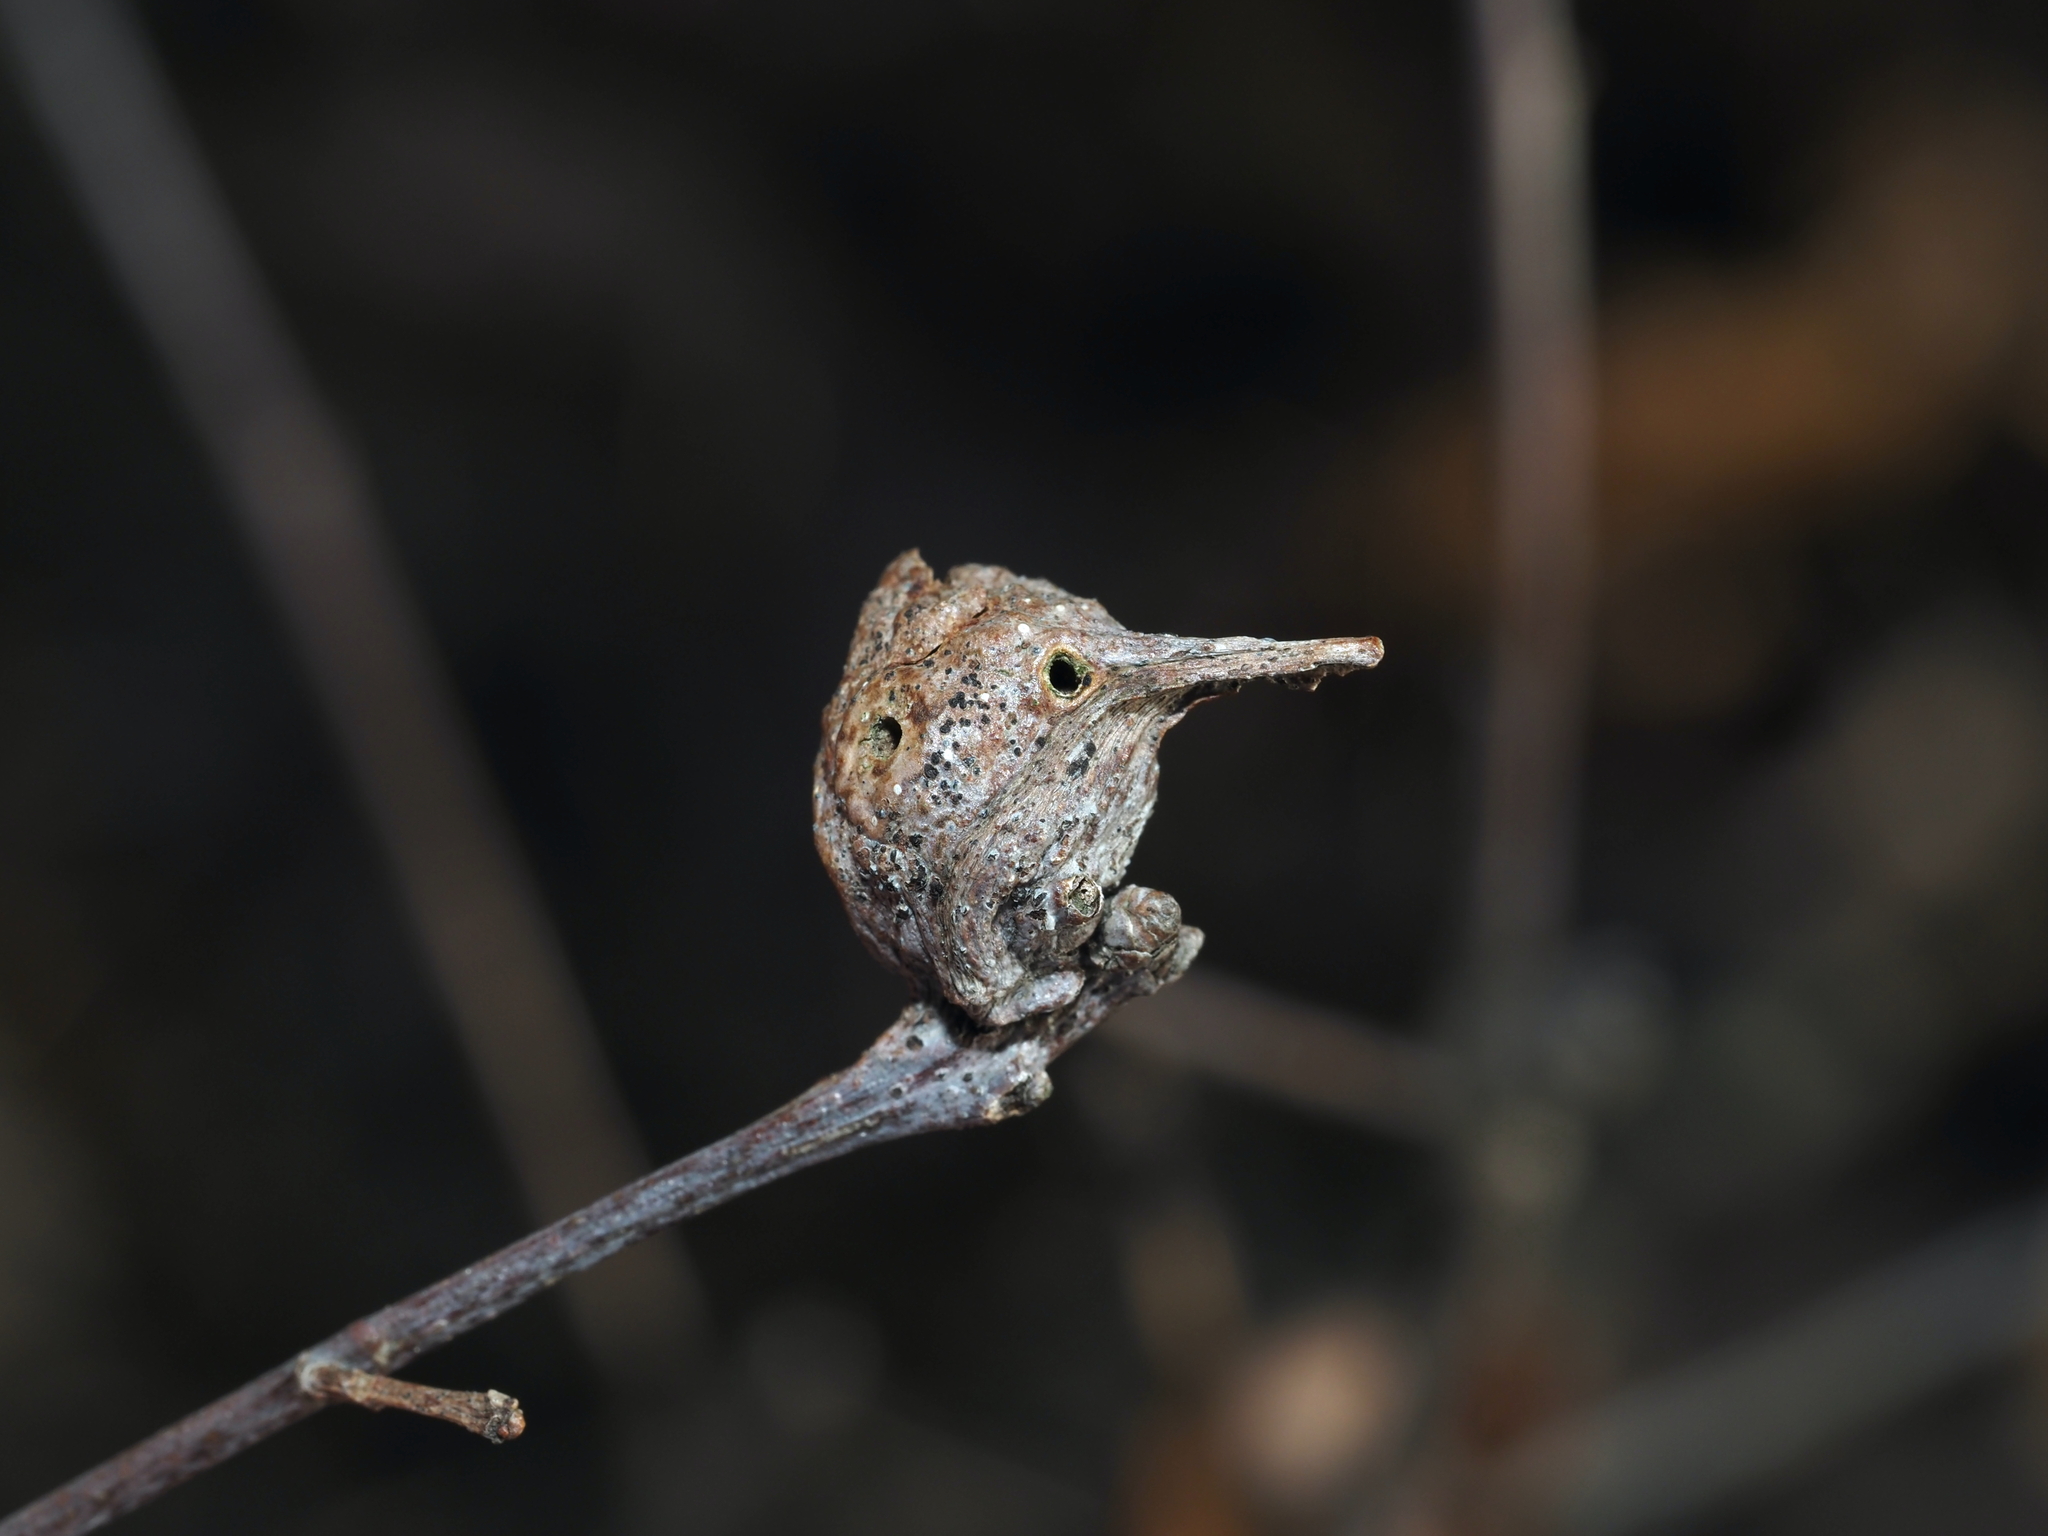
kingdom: Animalia
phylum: Arthropoda
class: Insecta
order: Hymenoptera
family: Cynipidae
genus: Andricus
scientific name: Andricus
